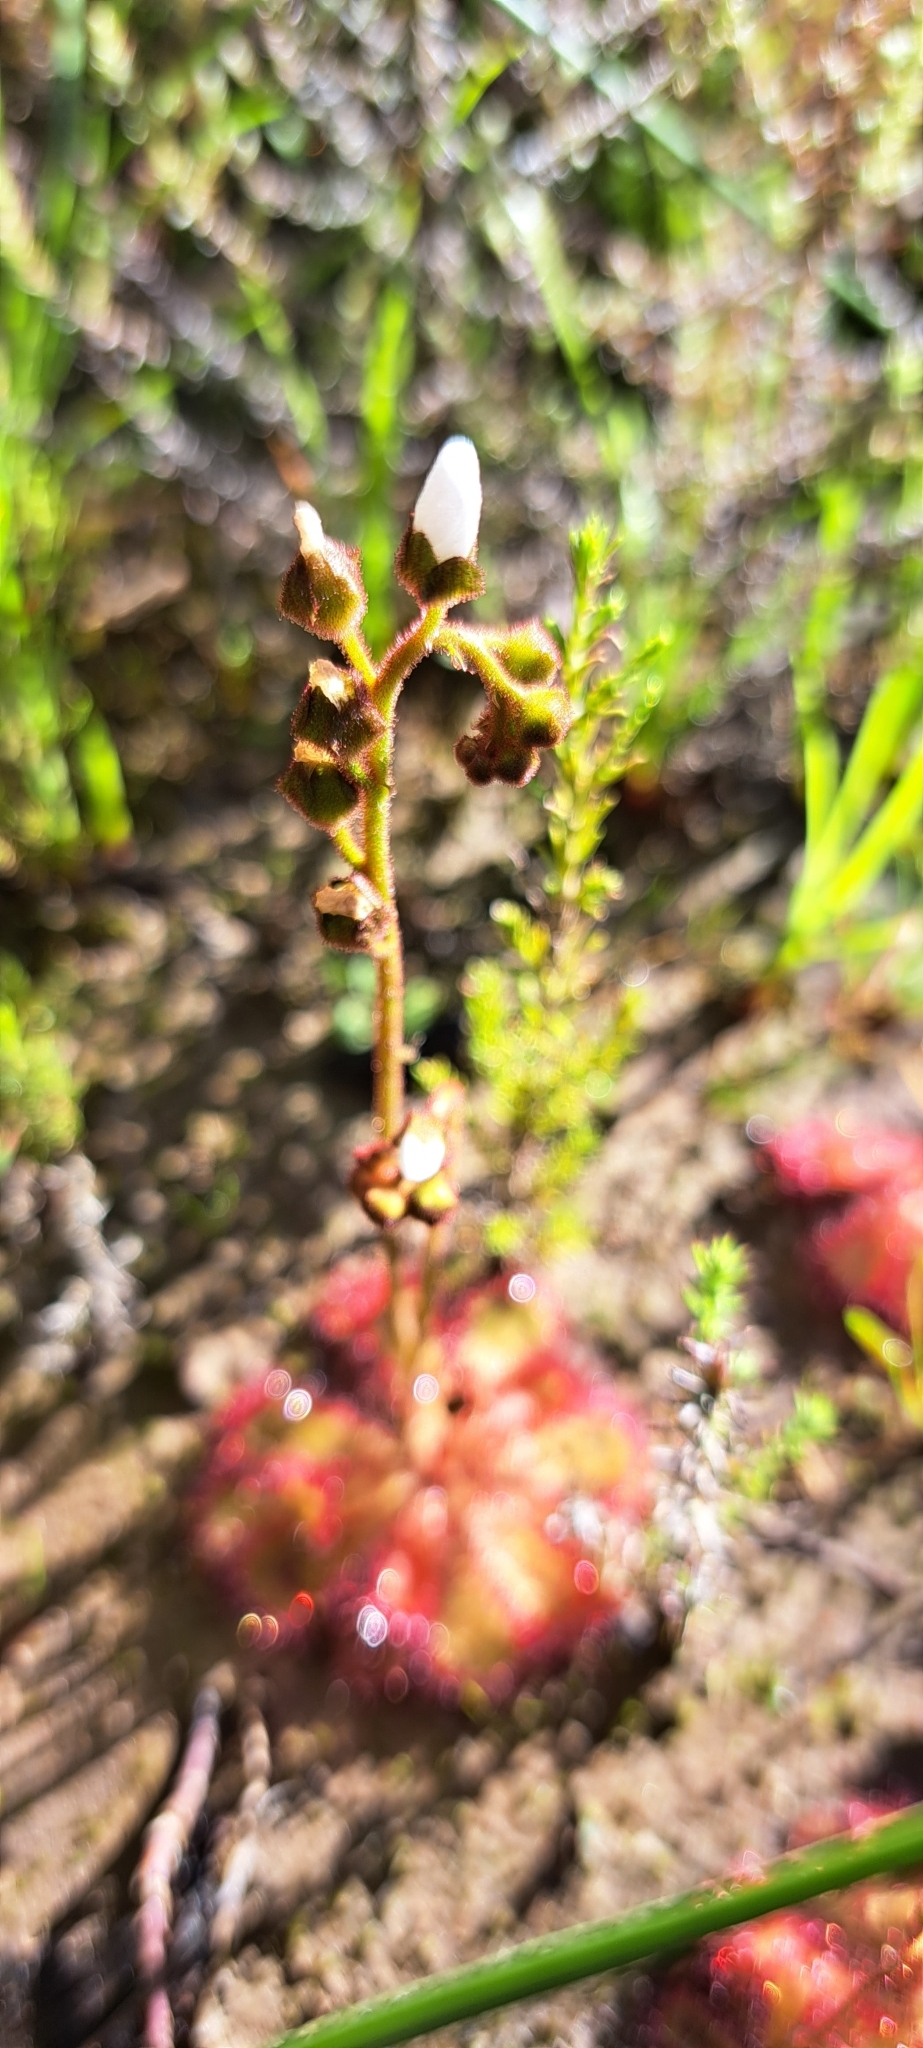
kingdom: Plantae
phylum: Tracheophyta
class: Magnoliopsida
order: Caryophyllales
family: Droseraceae
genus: Drosera
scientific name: Drosera trinervia
